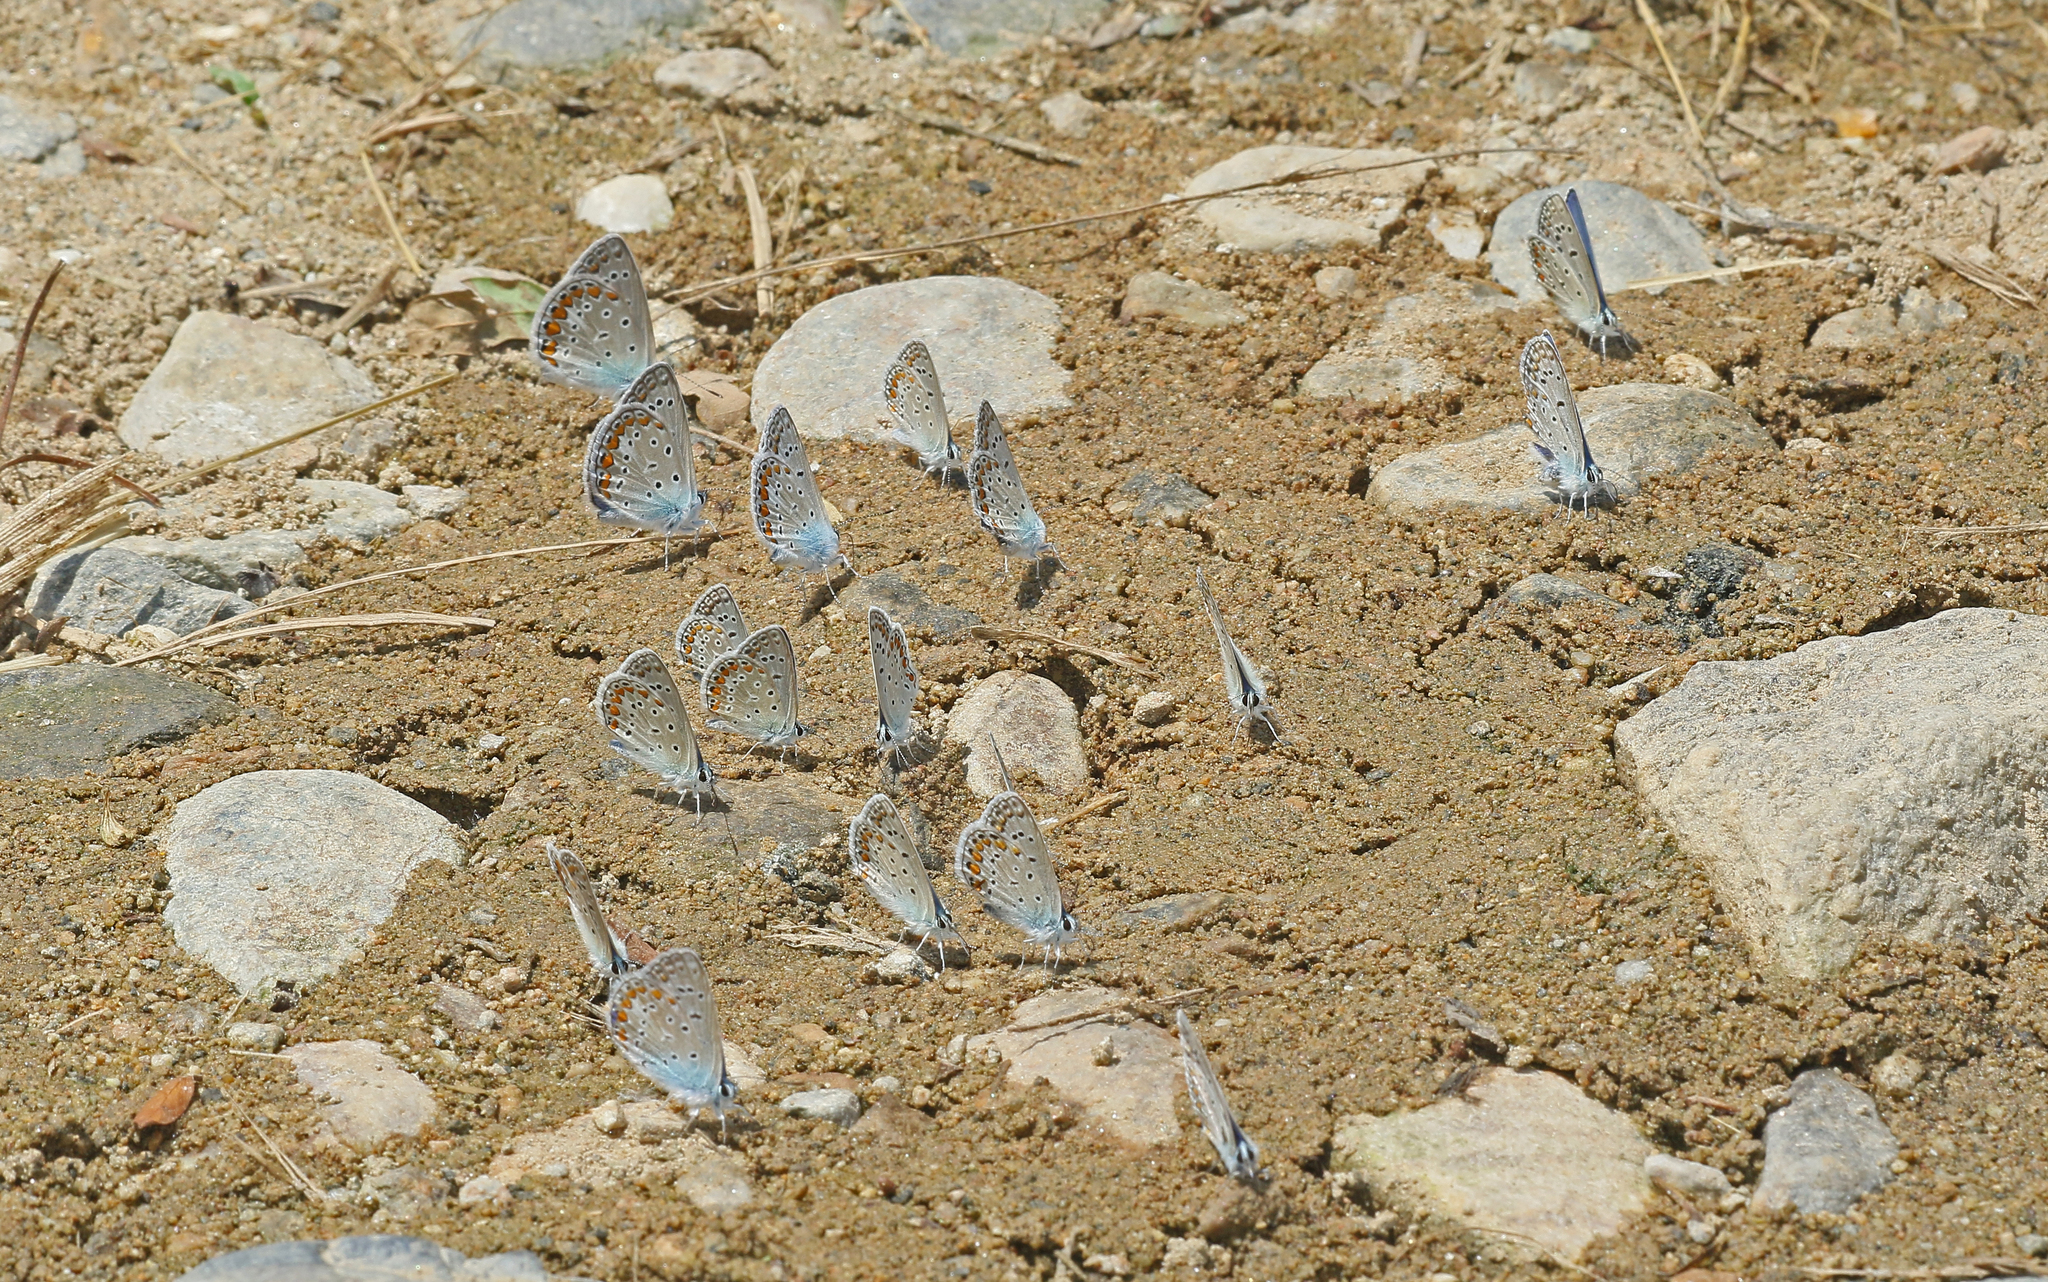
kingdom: Animalia
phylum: Arthropoda
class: Insecta
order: Lepidoptera
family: Lycaenidae
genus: Polyommatus
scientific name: Polyommatus icarus
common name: Common blue
